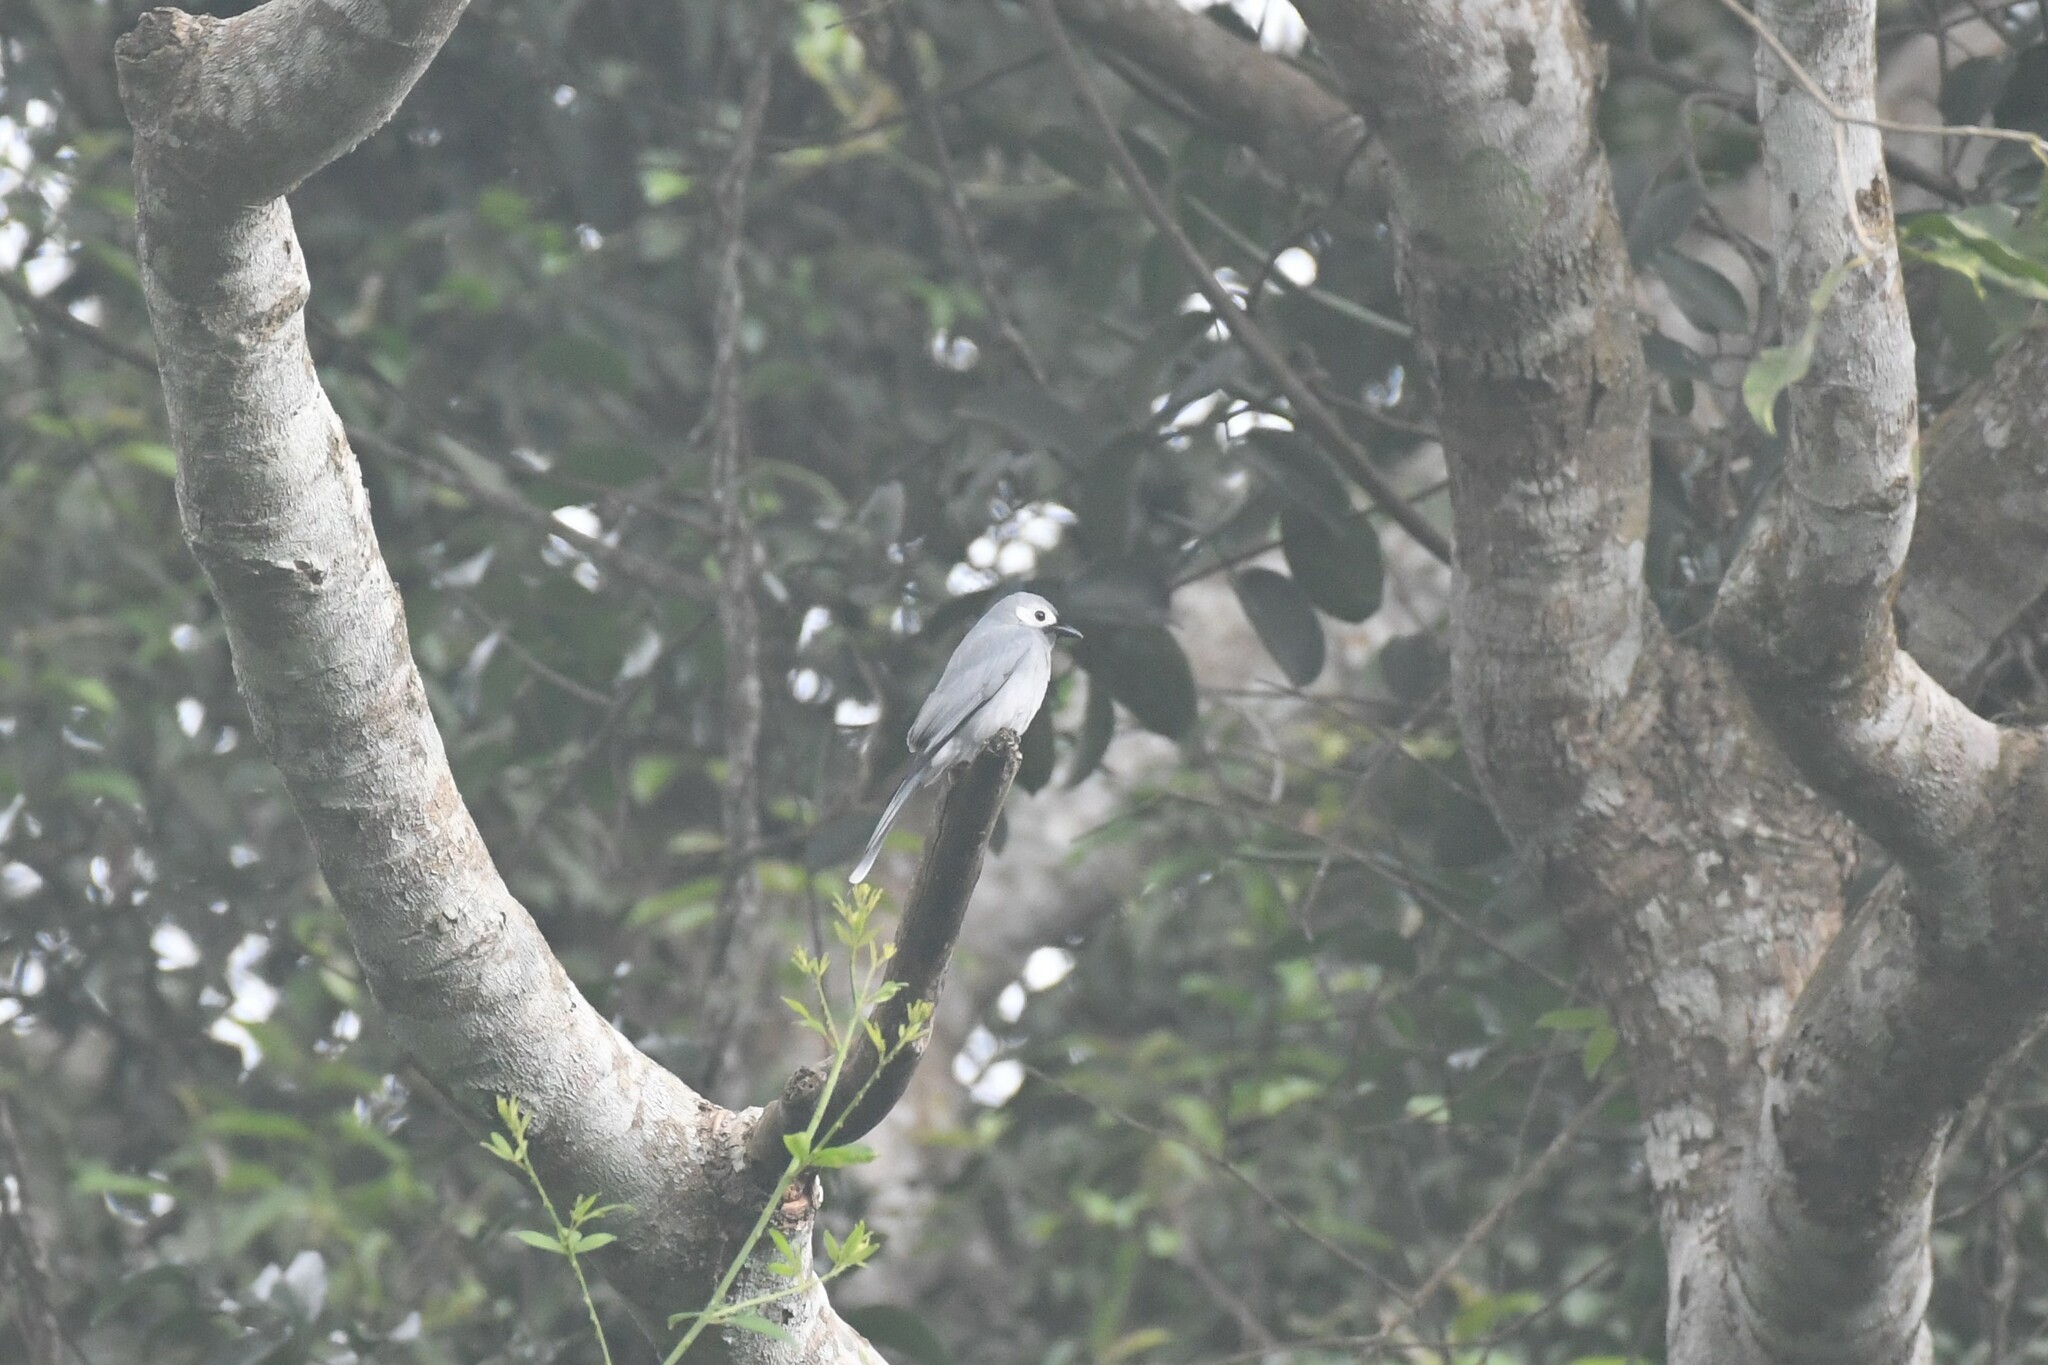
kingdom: Animalia
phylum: Chordata
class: Aves
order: Passeriformes
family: Dicruridae
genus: Dicrurus
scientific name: Dicrurus leucophaeus
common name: Ashy drongo
